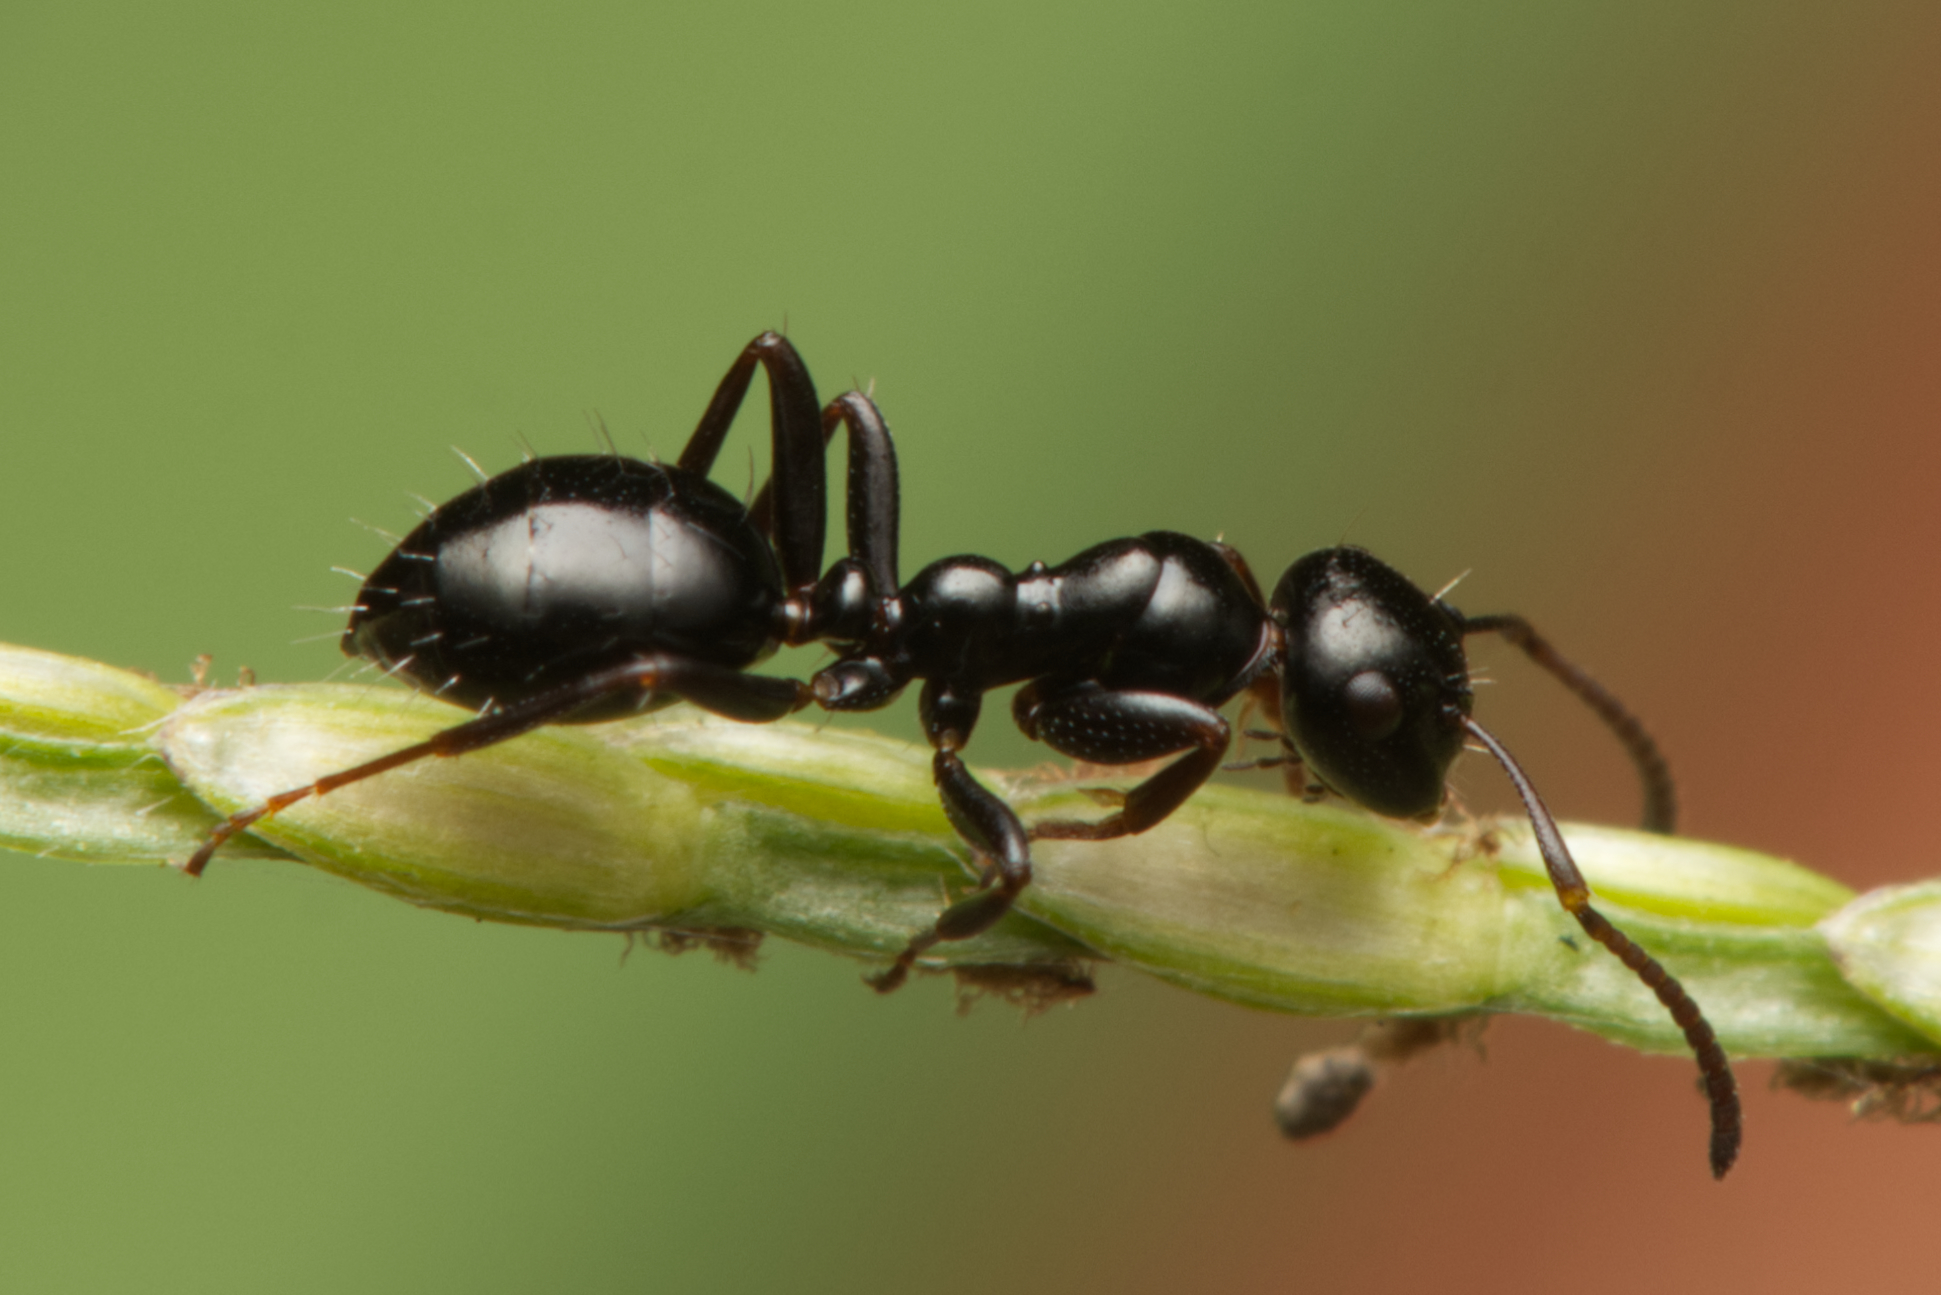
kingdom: Animalia
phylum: Arthropoda
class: Insecta
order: Hymenoptera
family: Formicidae
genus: Colobopsis
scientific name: Colobopsis gasseri
